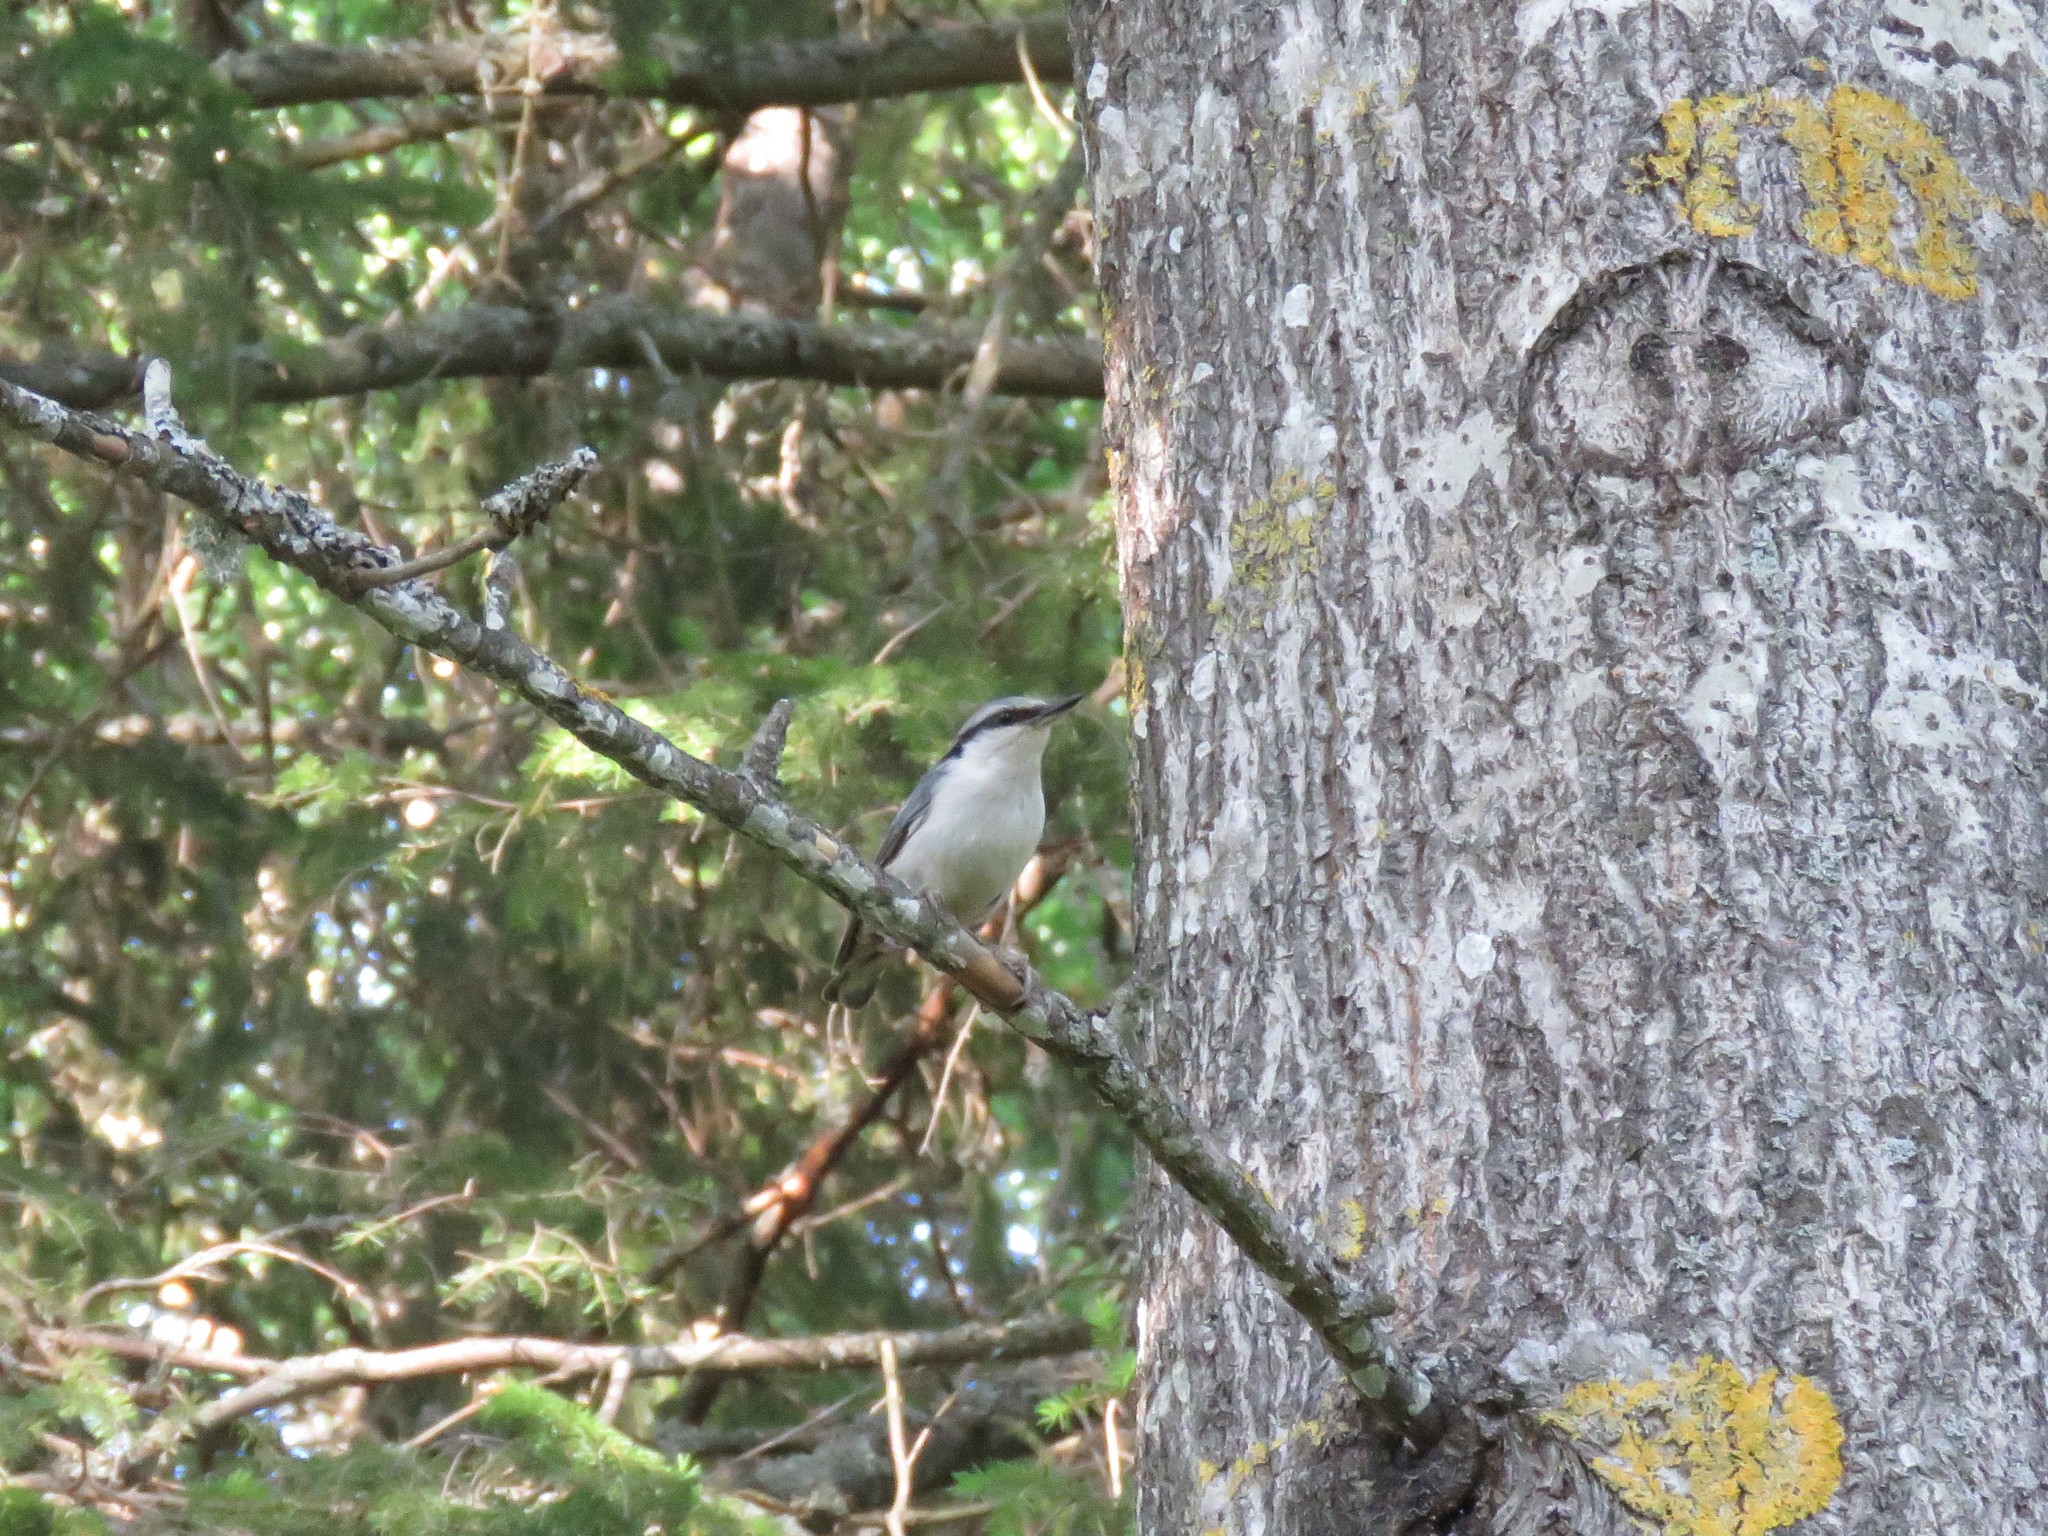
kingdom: Animalia
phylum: Chordata
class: Aves
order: Passeriformes
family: Sittidae
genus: Sitta
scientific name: Sitta europaea
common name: Eurasian nuthatch
